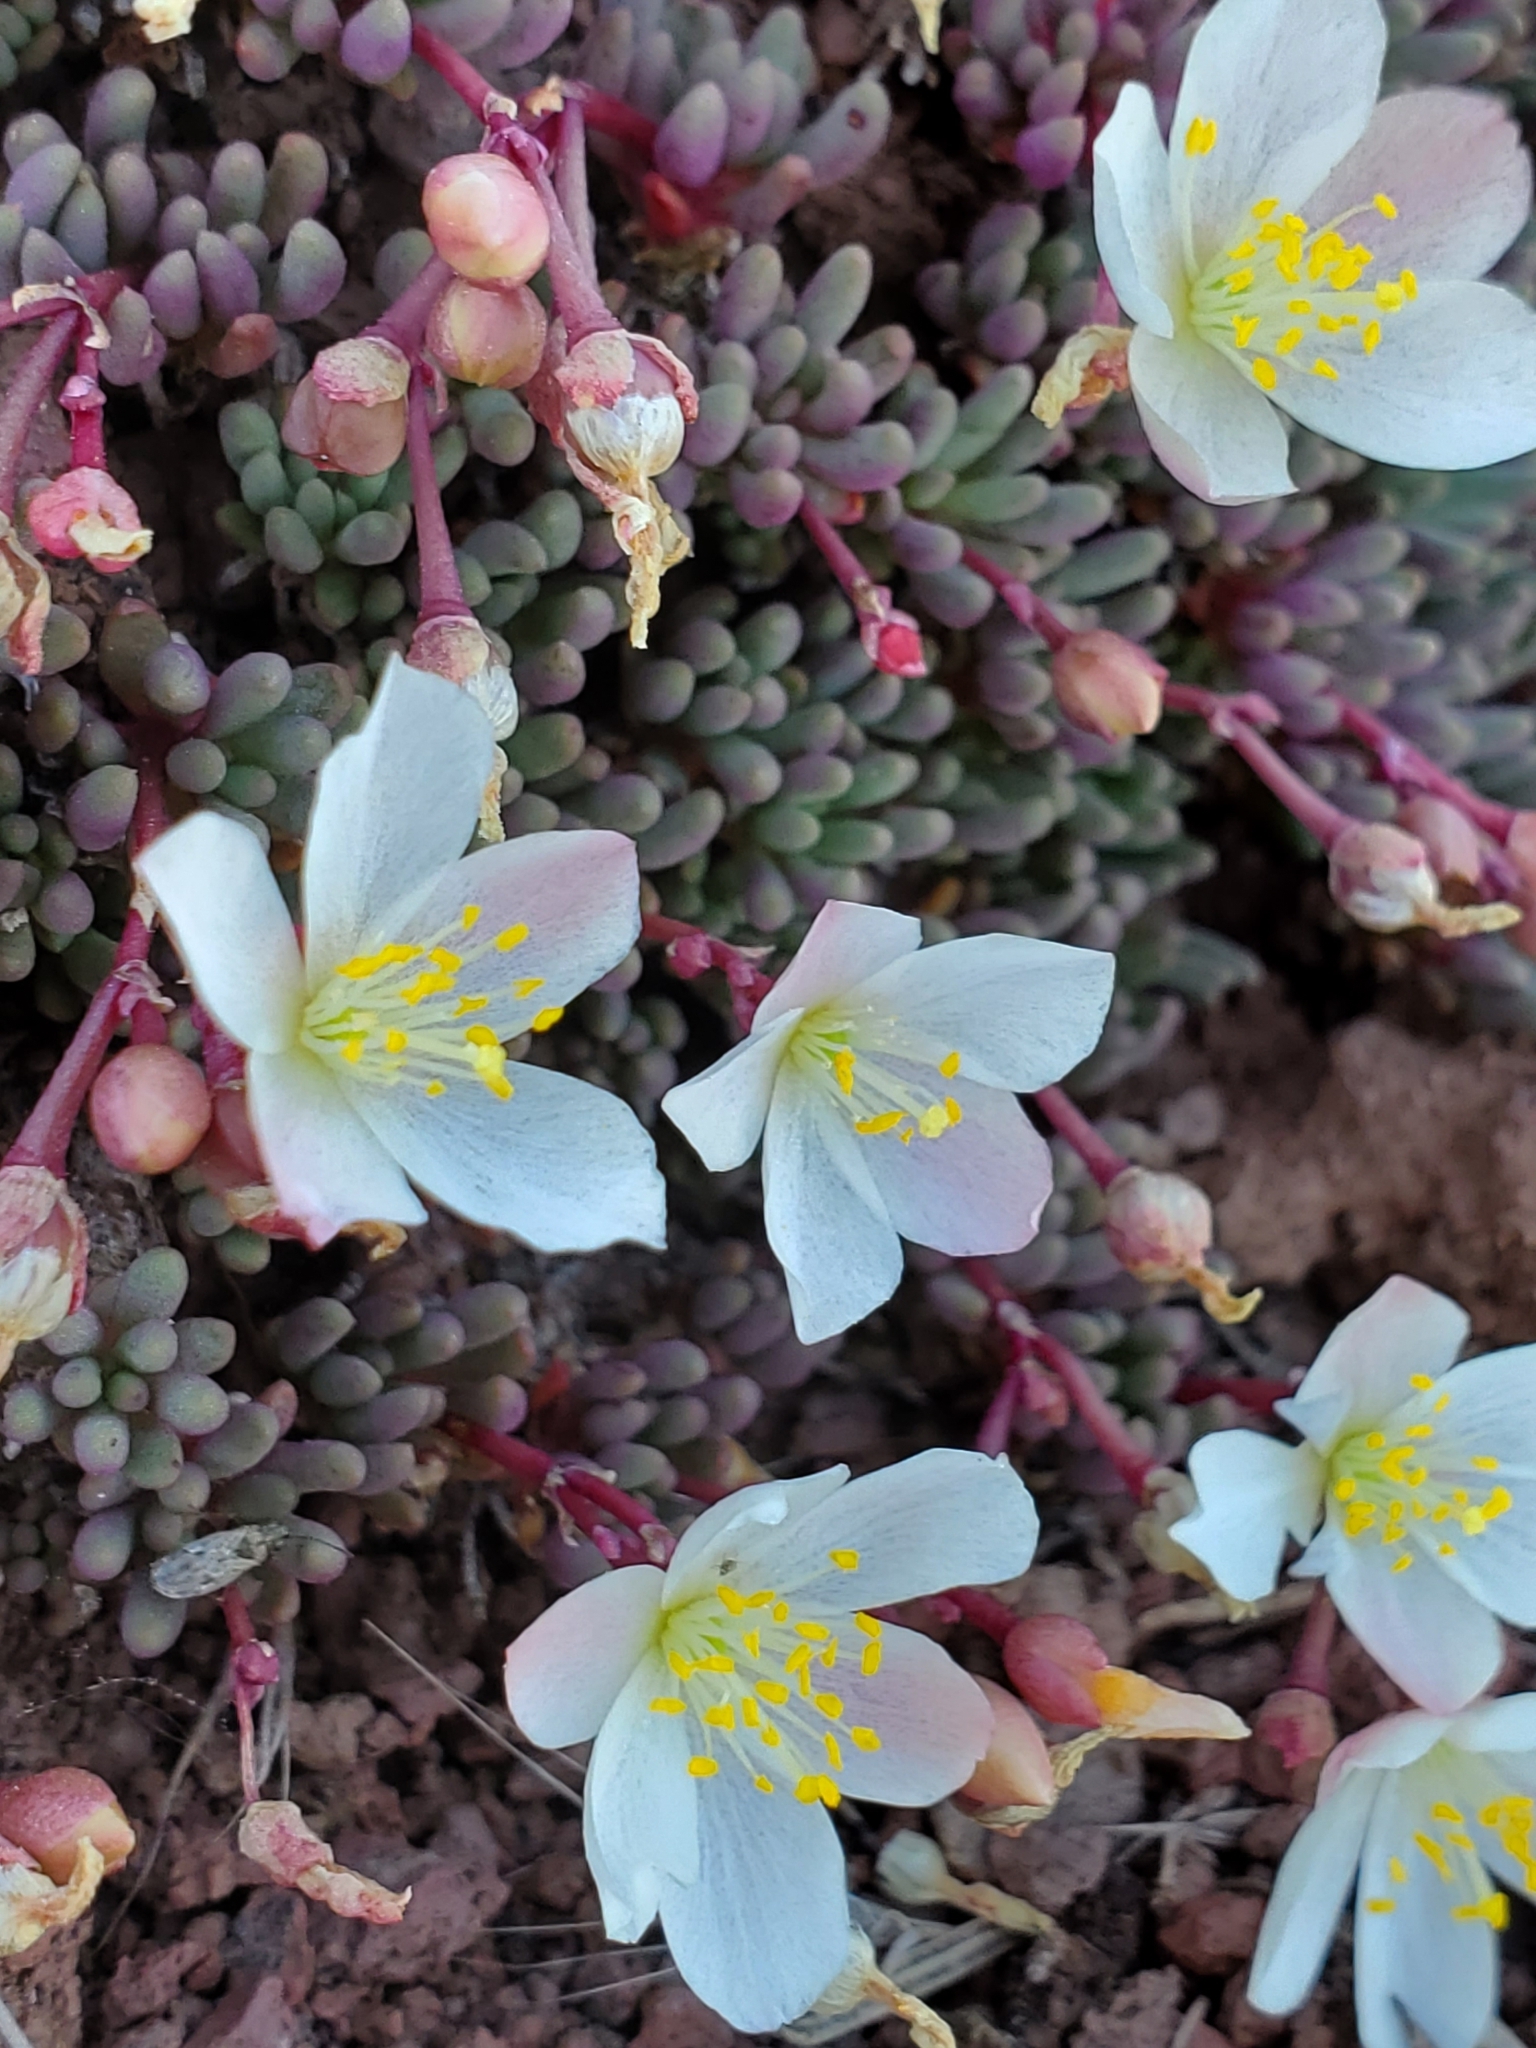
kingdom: Plantae
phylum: Tracheophyta
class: Magnoliopsida
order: Caryophyllales
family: Montiaceae
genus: Phemeranthus
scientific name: Phemeranthus sediformis
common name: Okanogan fameflower
